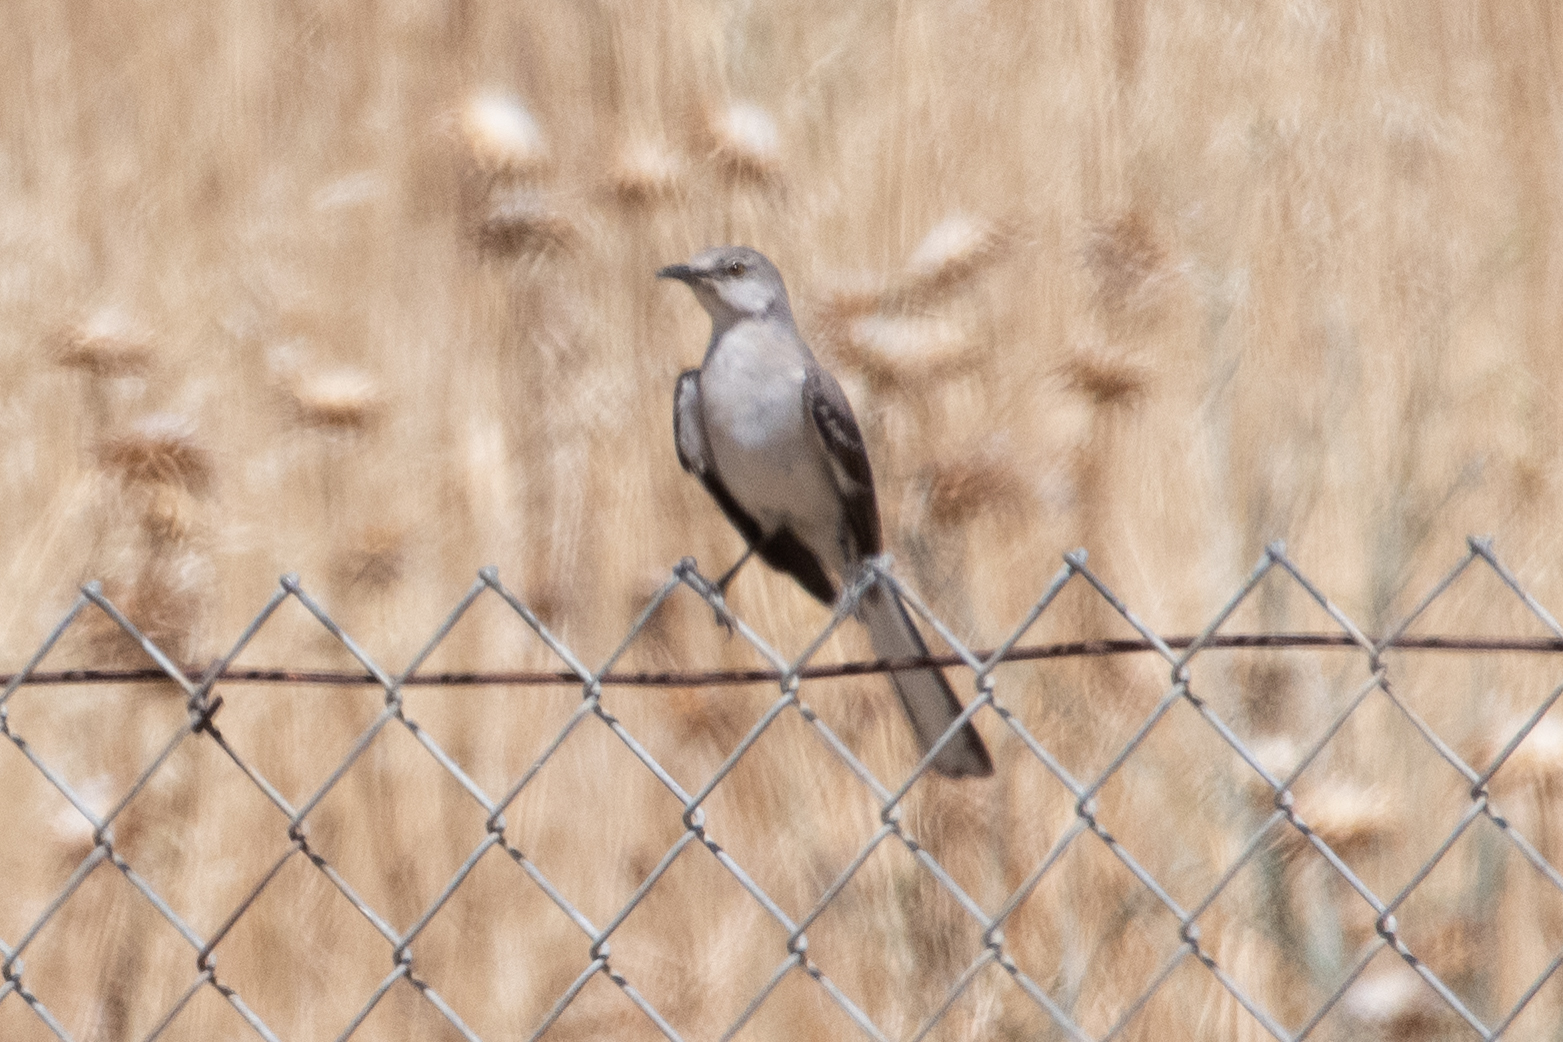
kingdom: Animalia
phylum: Chordata
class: Aves
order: Passeriformes
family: Mimidae
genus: Mimus
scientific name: Mimus polyglottos
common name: Northern mockingbird
